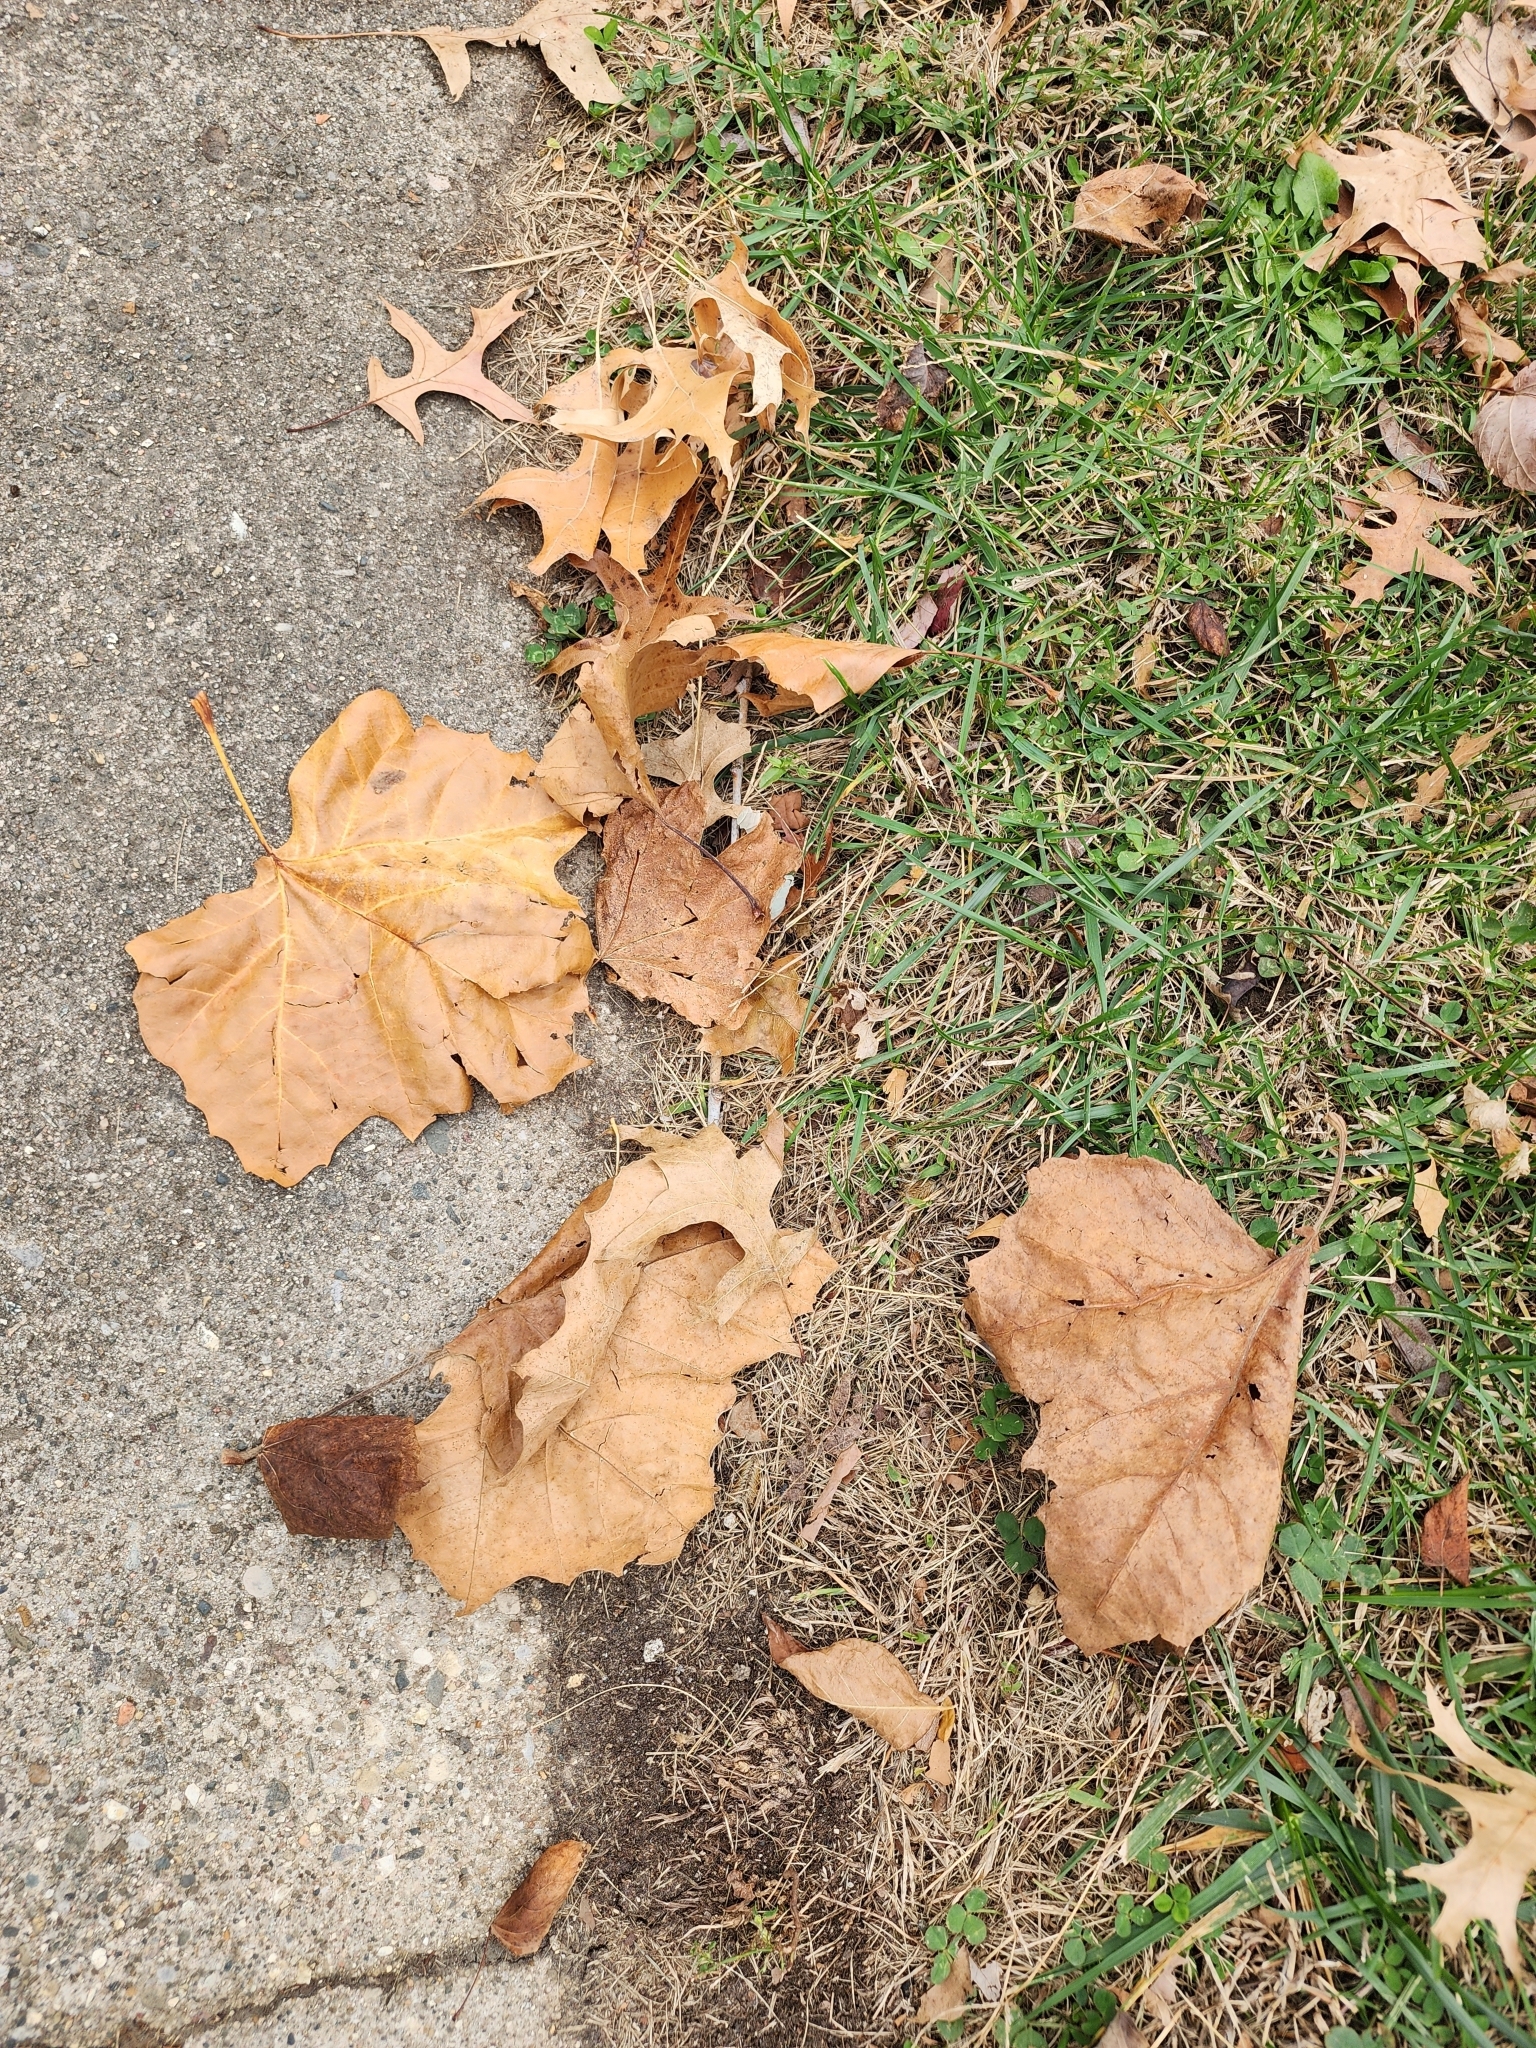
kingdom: Plantae
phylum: Tracheophyta
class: Magnoliopsida
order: Proteales
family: Platanaceae
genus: Platanus
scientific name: Platanus occidentalis
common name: American sycamore
